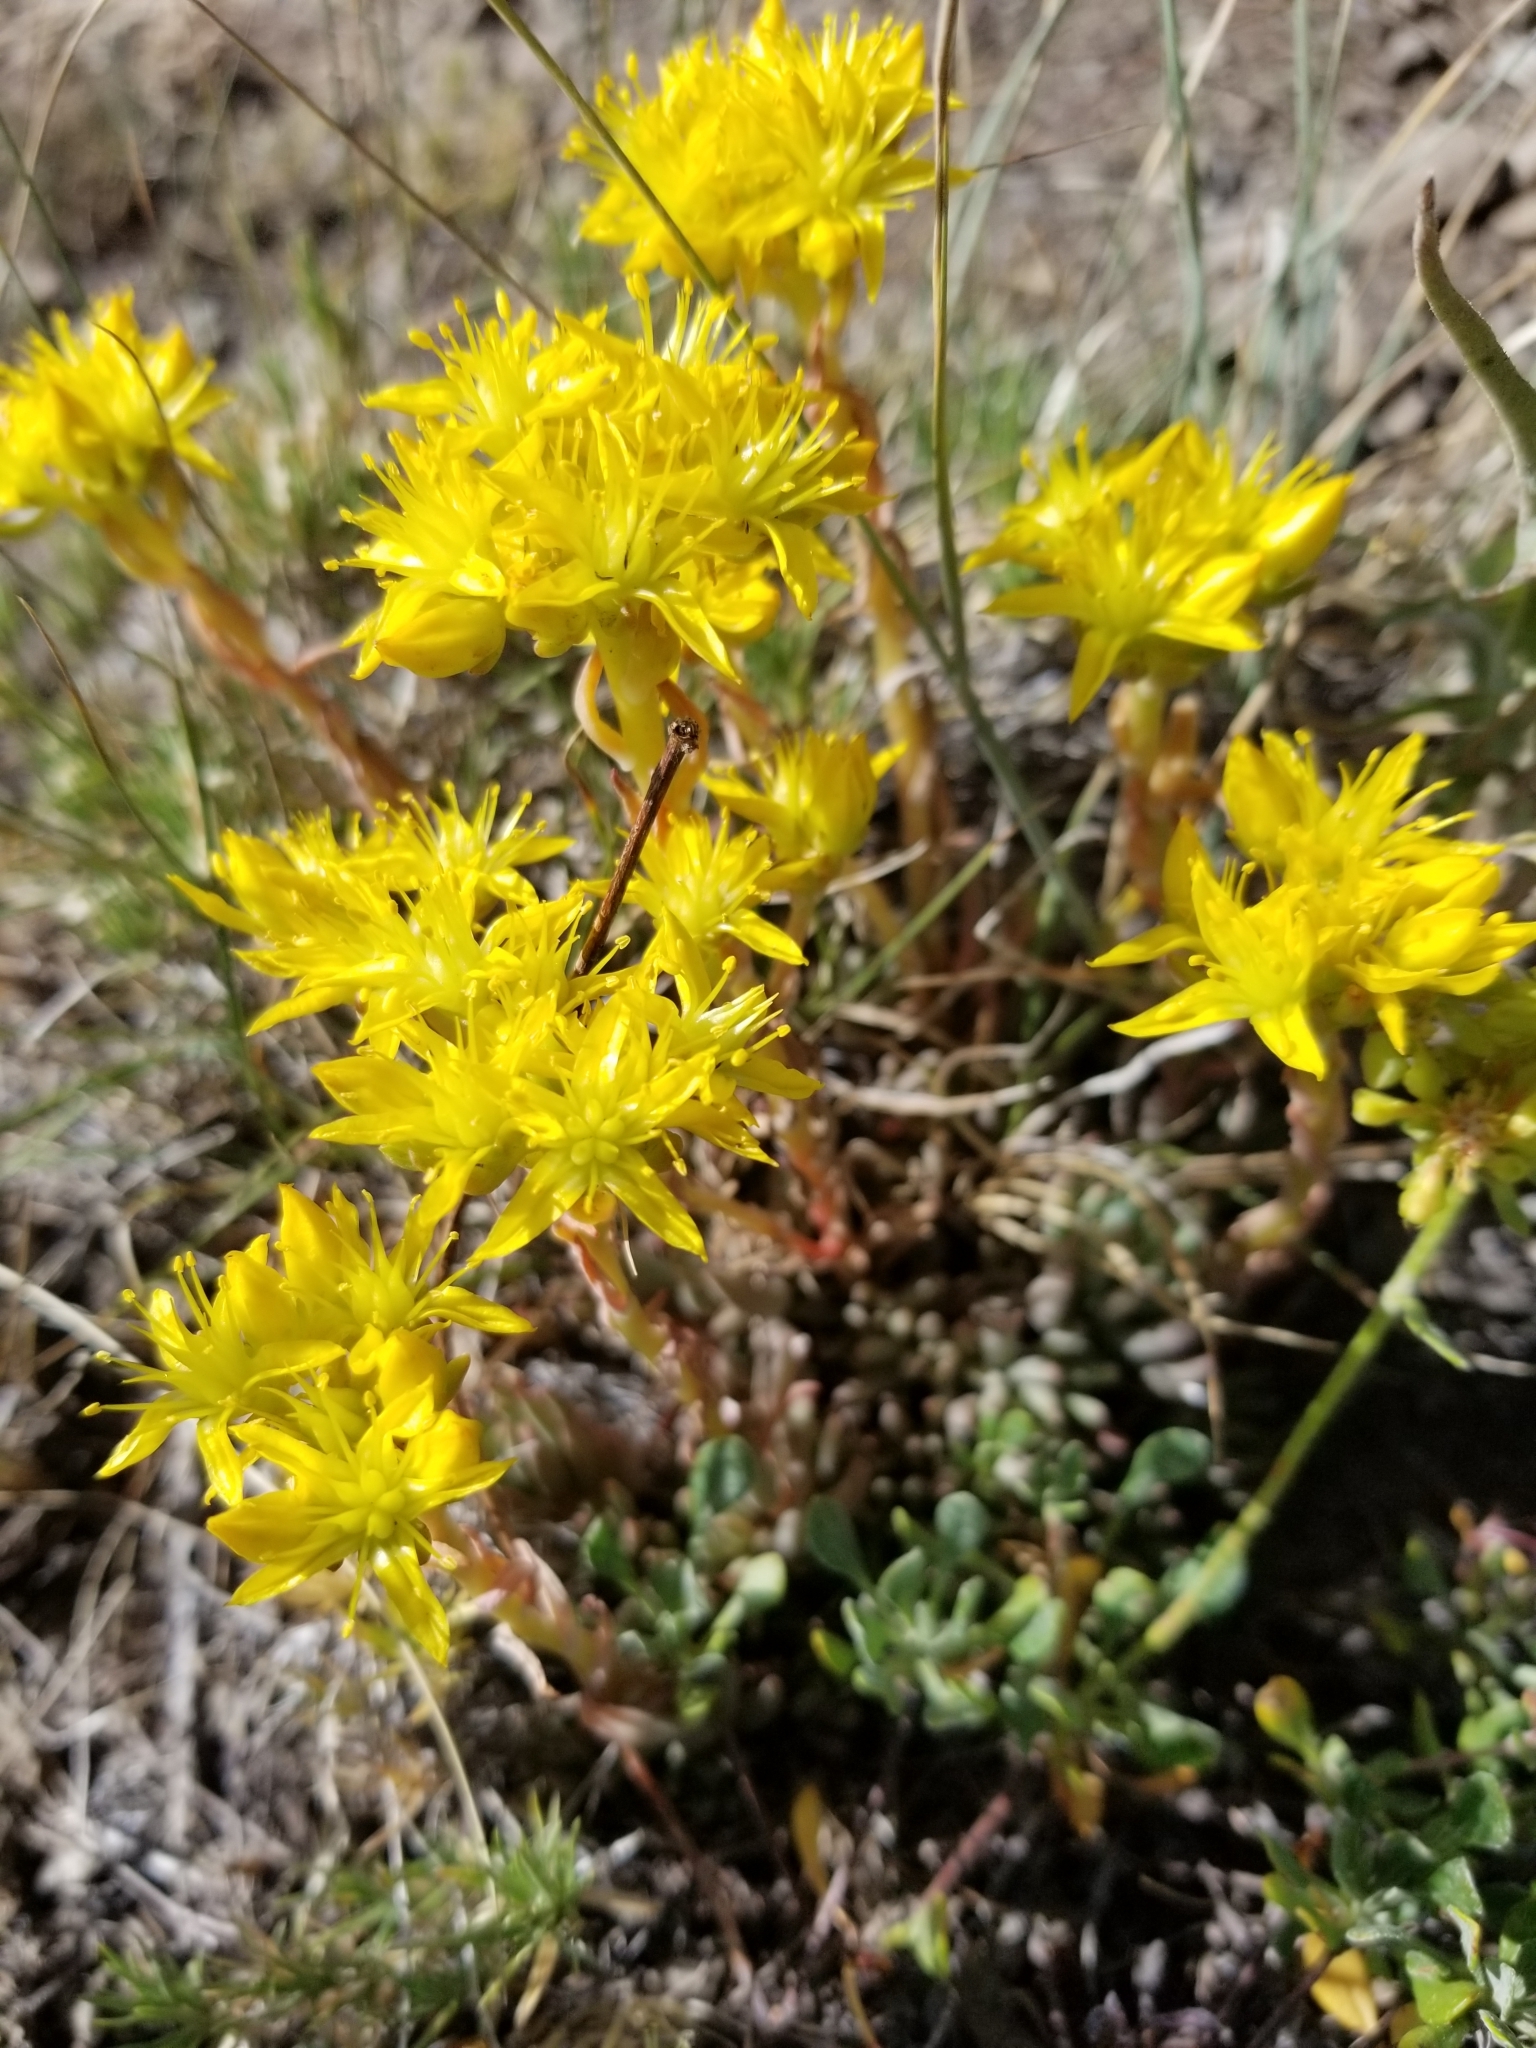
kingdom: Plantae
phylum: Tracheophyta
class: Magnoliopsida
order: Saxifragales
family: Crassulaceae
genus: Sedum
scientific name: Sedum lanceolatum
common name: Common stonecrop
